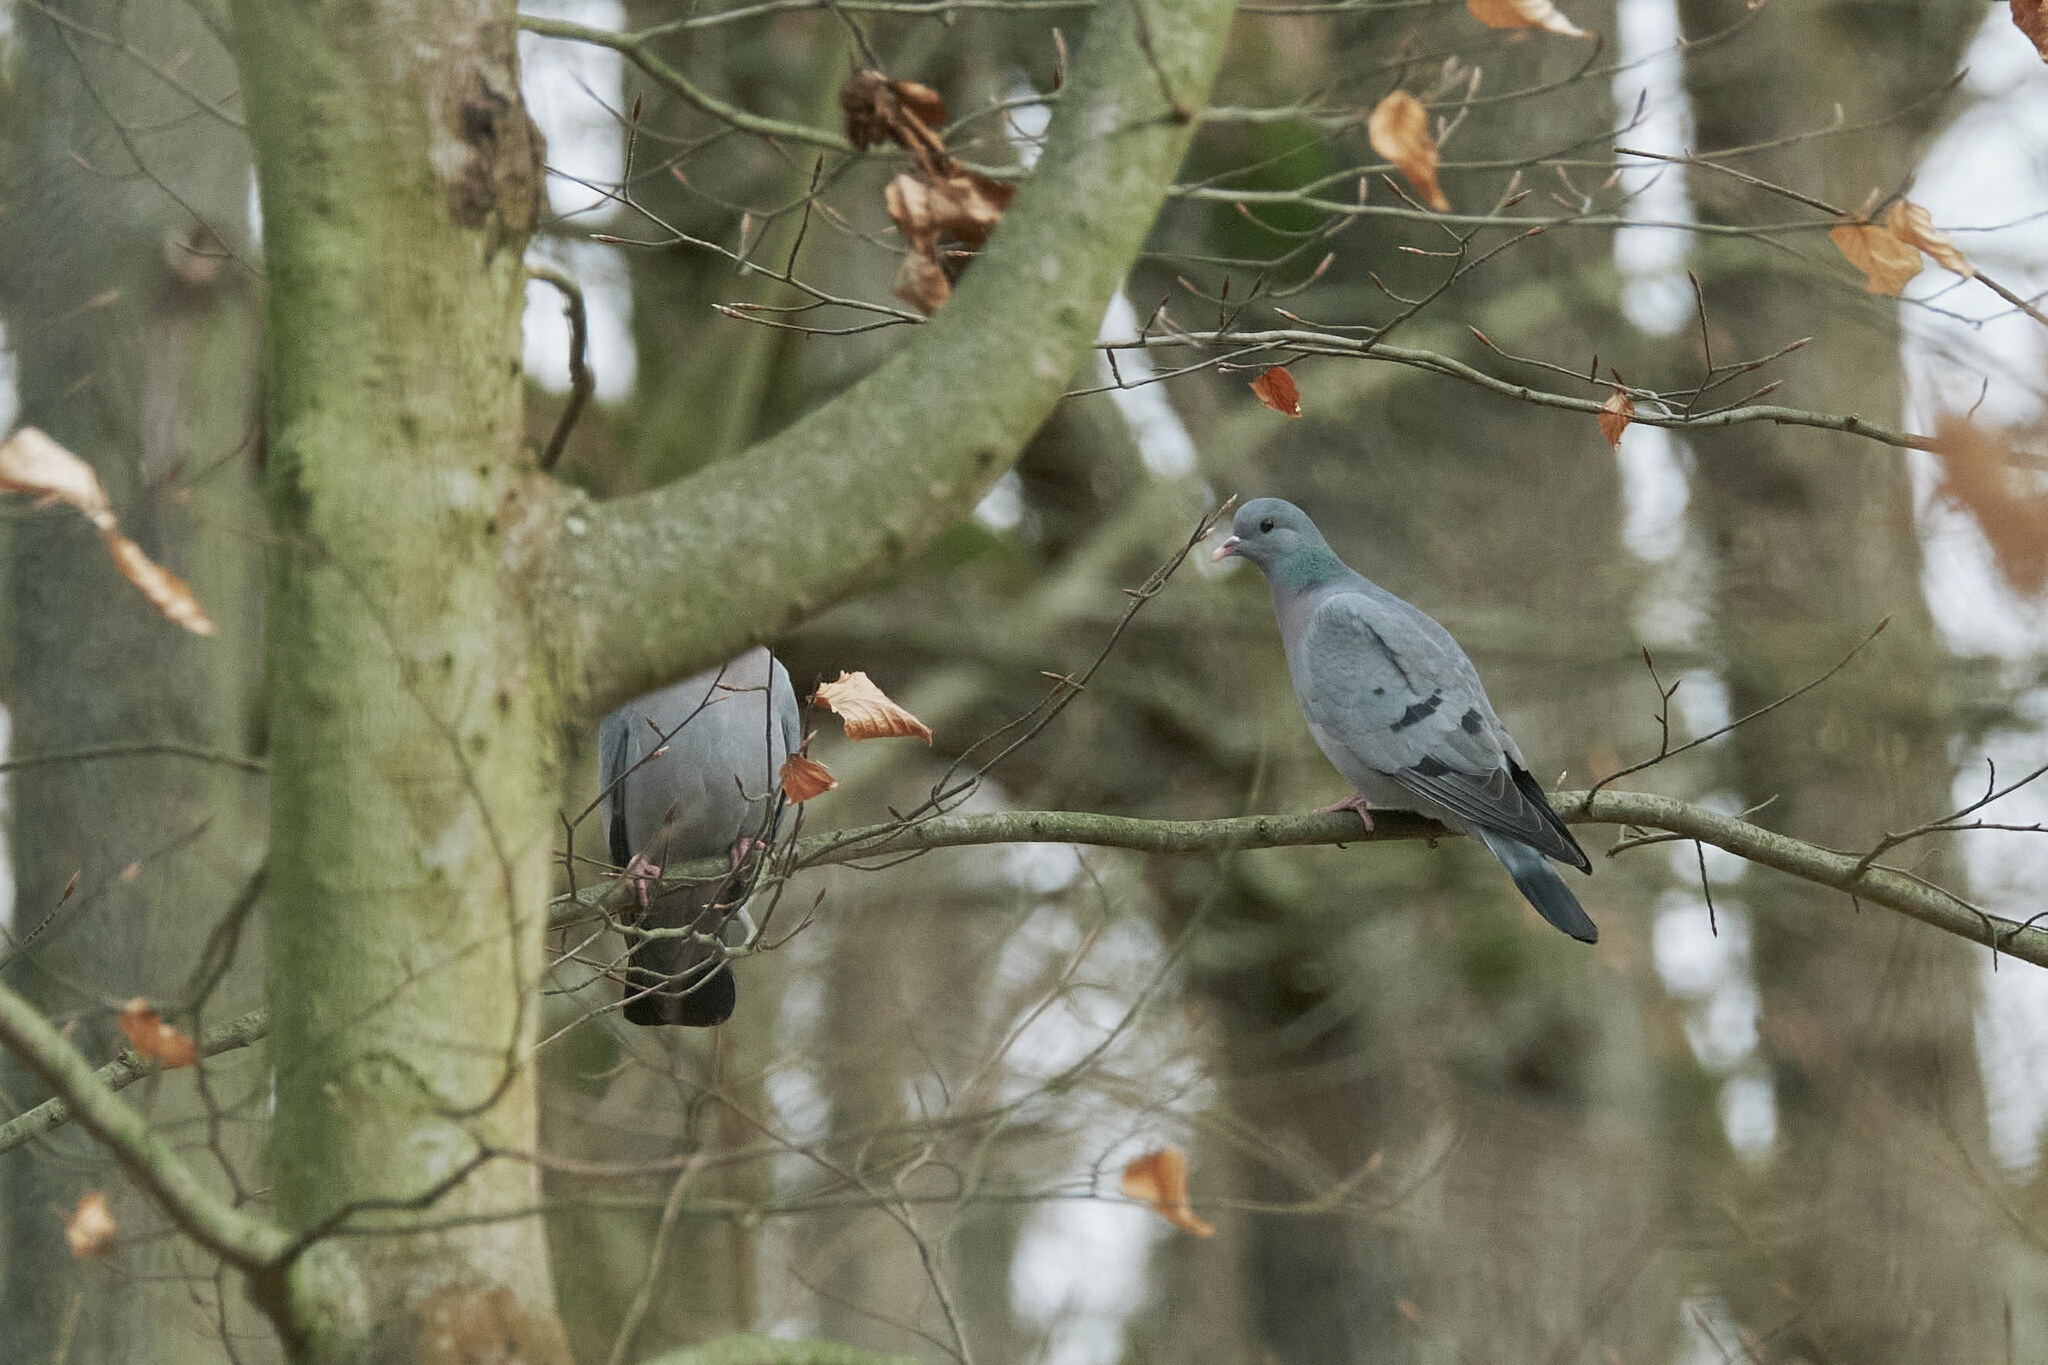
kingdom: Animalia
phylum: Chordata
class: Aves
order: Columbiformes
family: Columbidae
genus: Columba
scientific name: Columba oenas
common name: Stock dove
